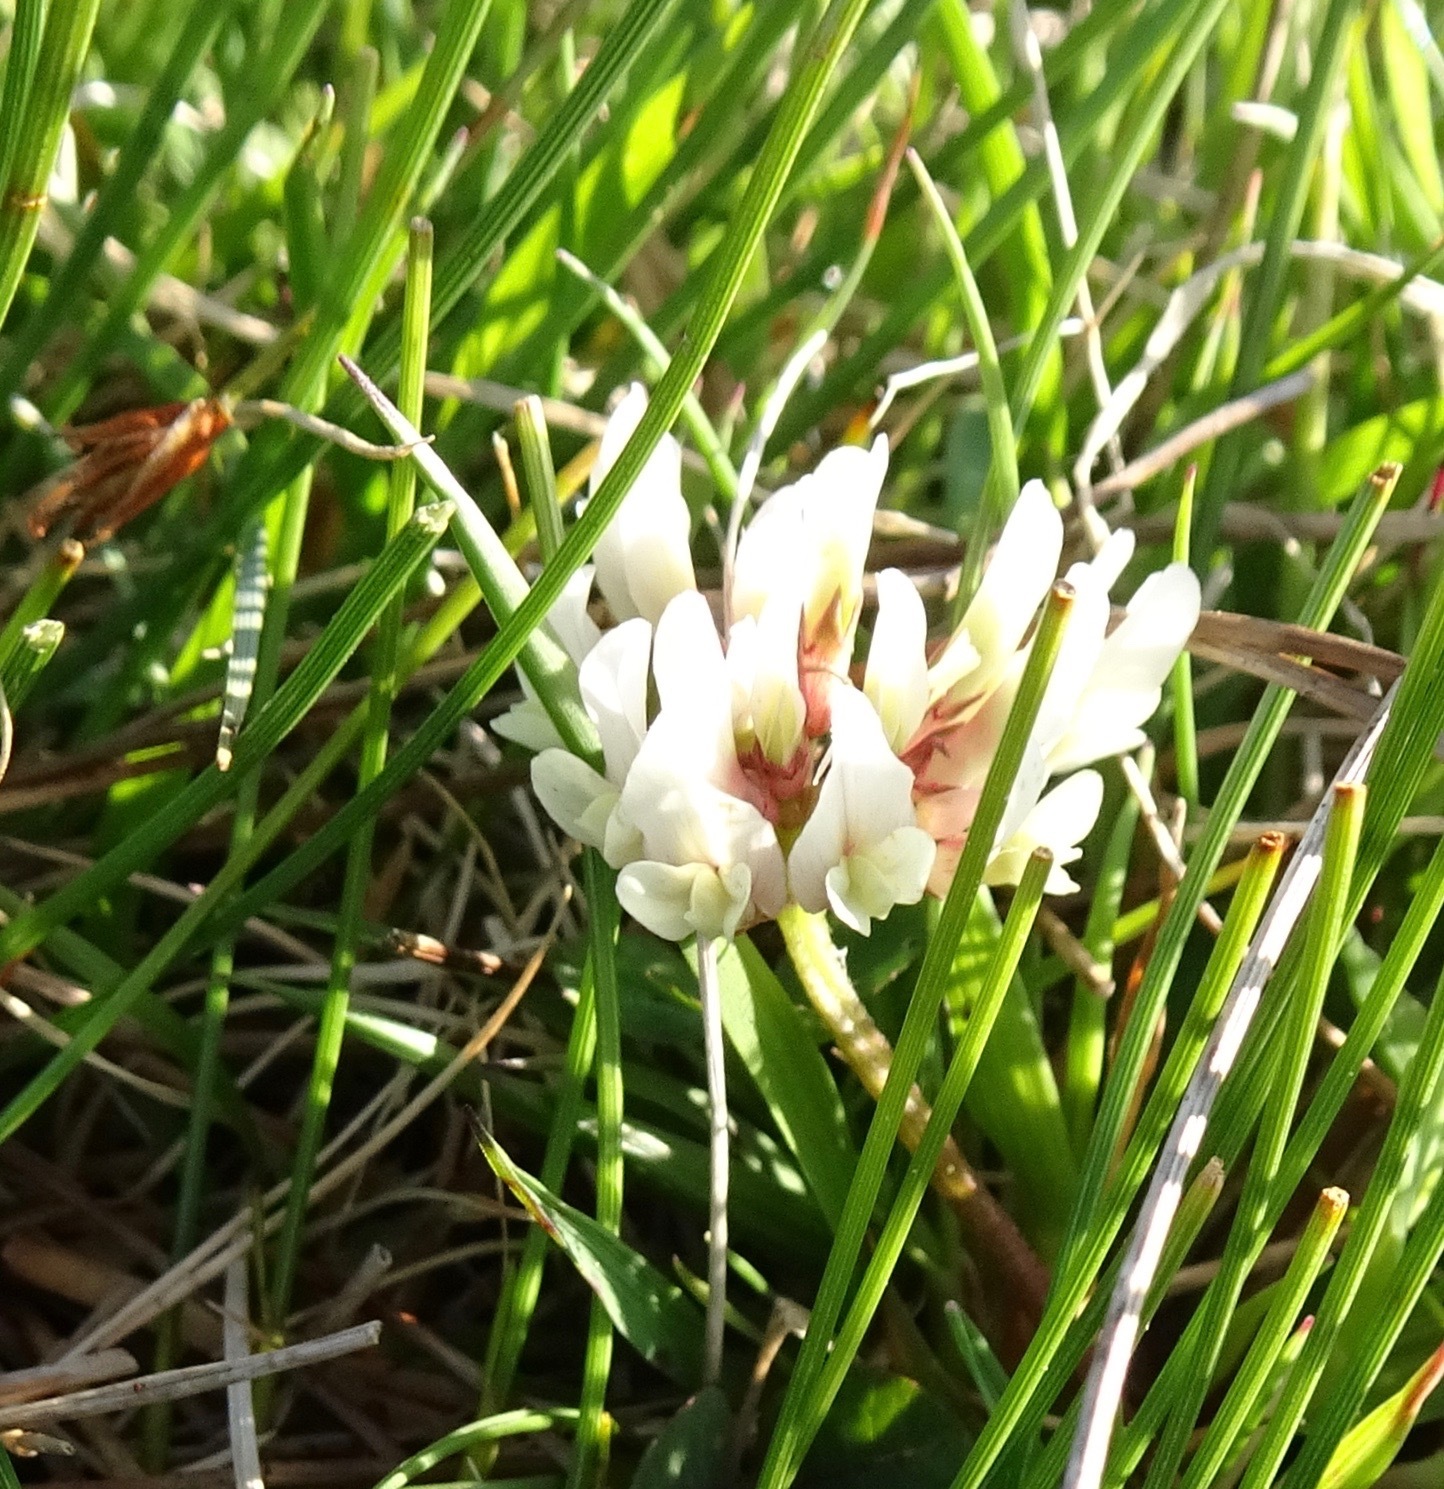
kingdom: Plantae
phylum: Tracheophyta
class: Magnoliopsida
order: Fabales
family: Fabaceae
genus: Trifolium
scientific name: Trifolium repens
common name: White clover
